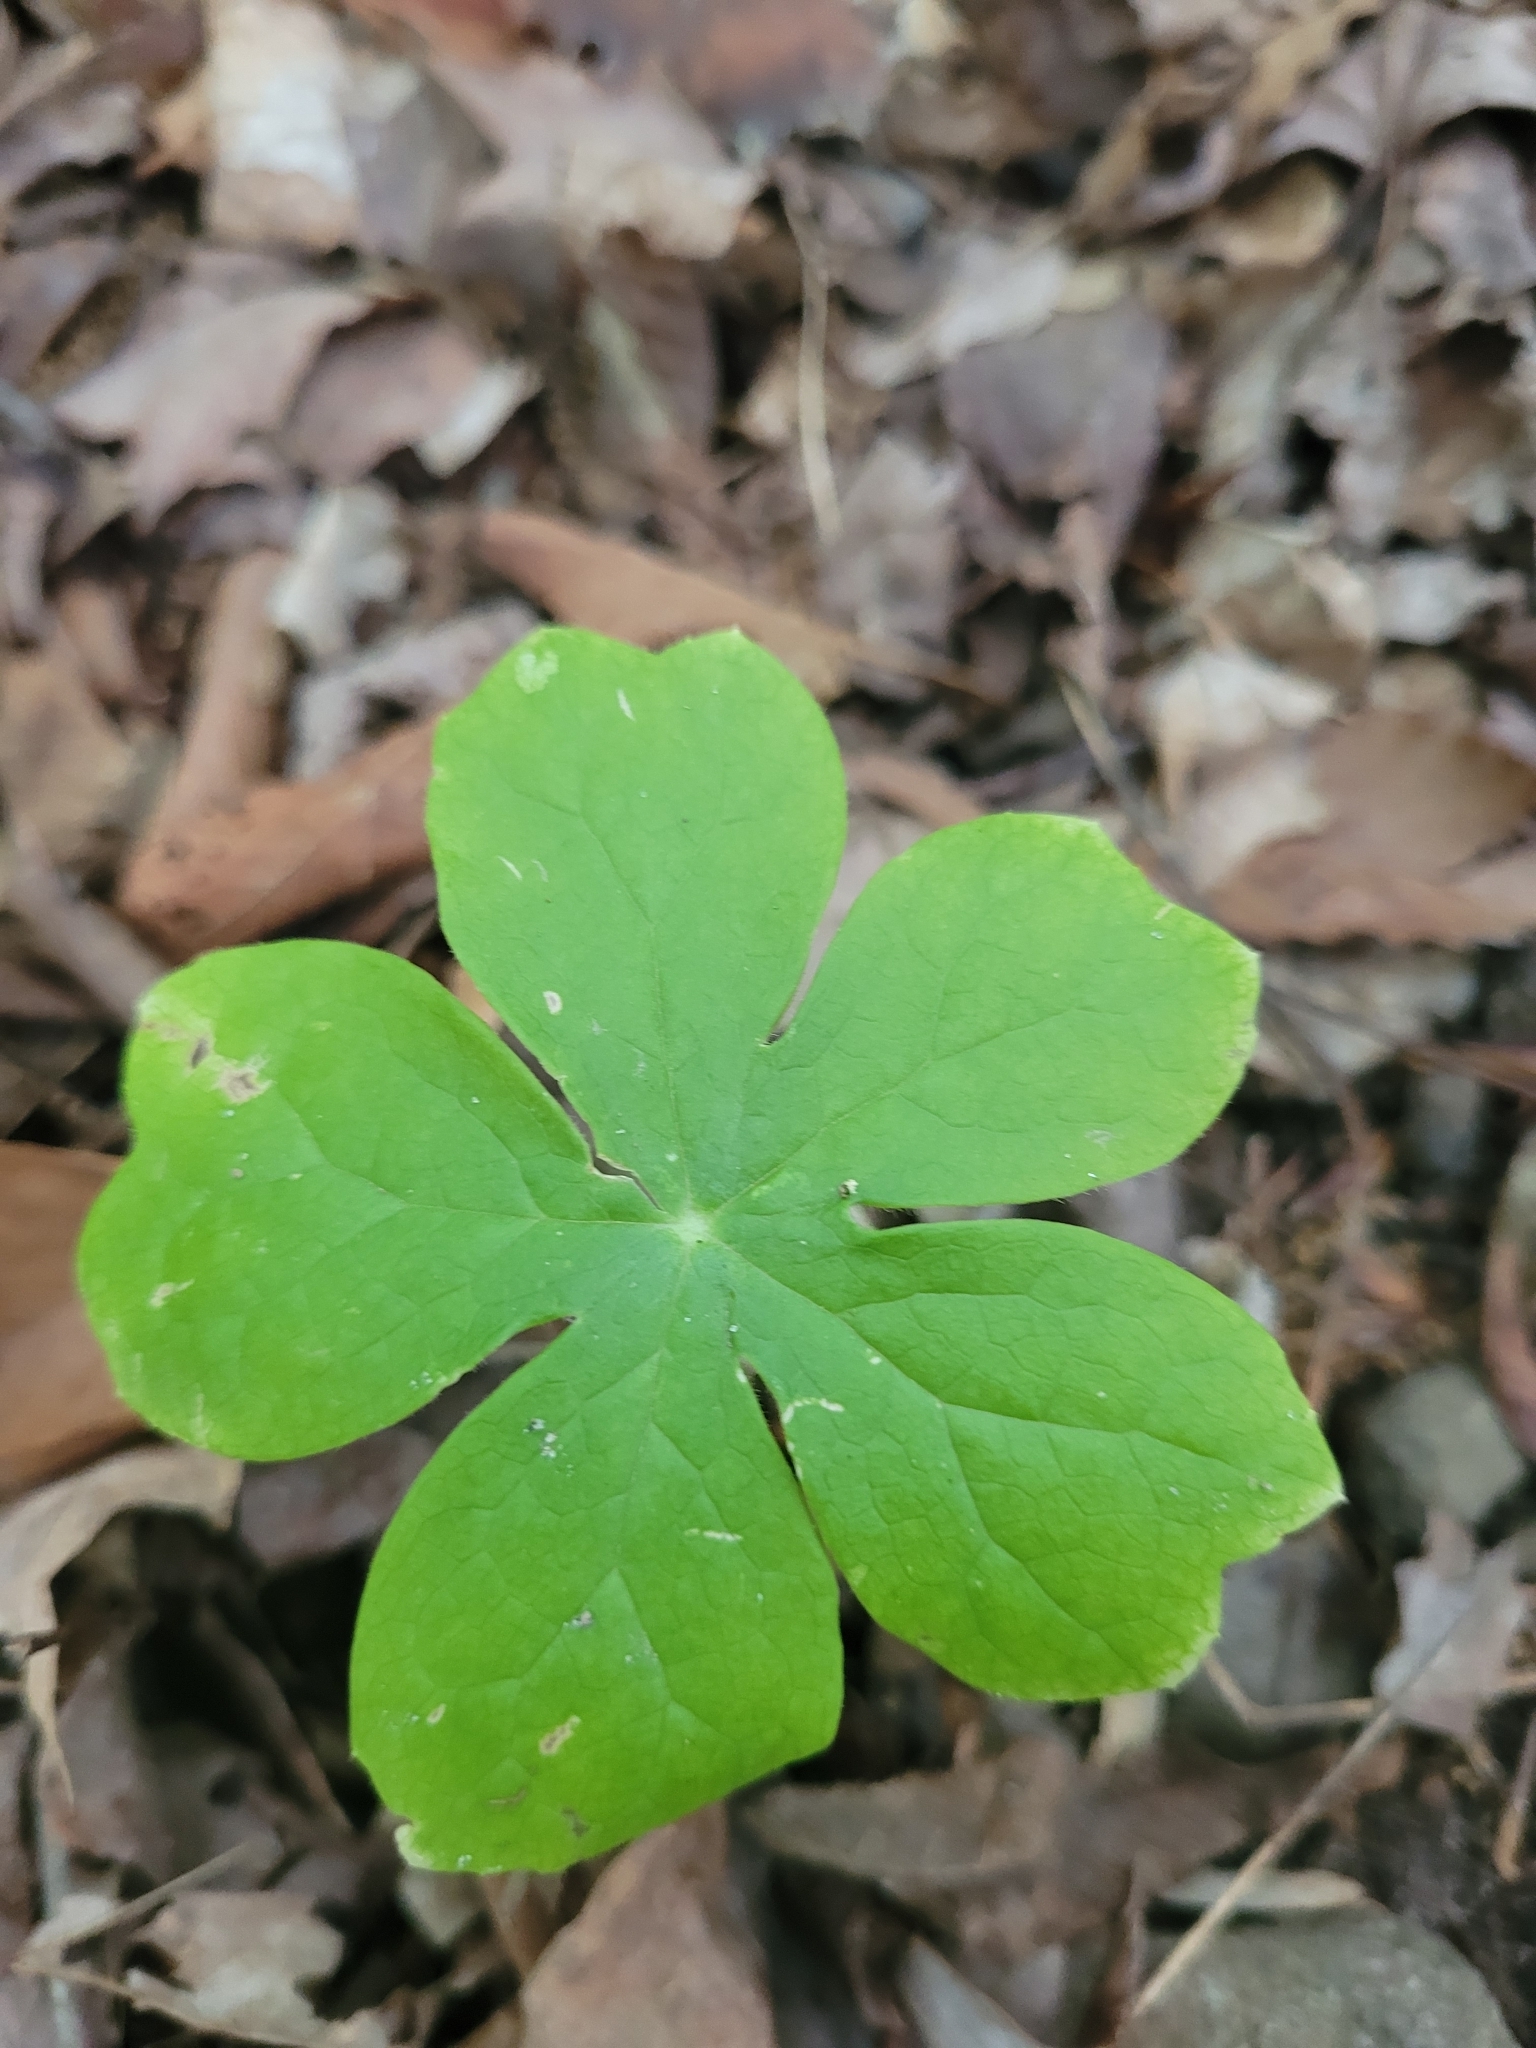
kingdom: Plantae
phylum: Tracheophyta
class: Magnoliopsida
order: Ranunculales
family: Berberidaceae
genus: Podophyllum
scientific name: Podophyllum peltatum
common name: Wild mandrake
